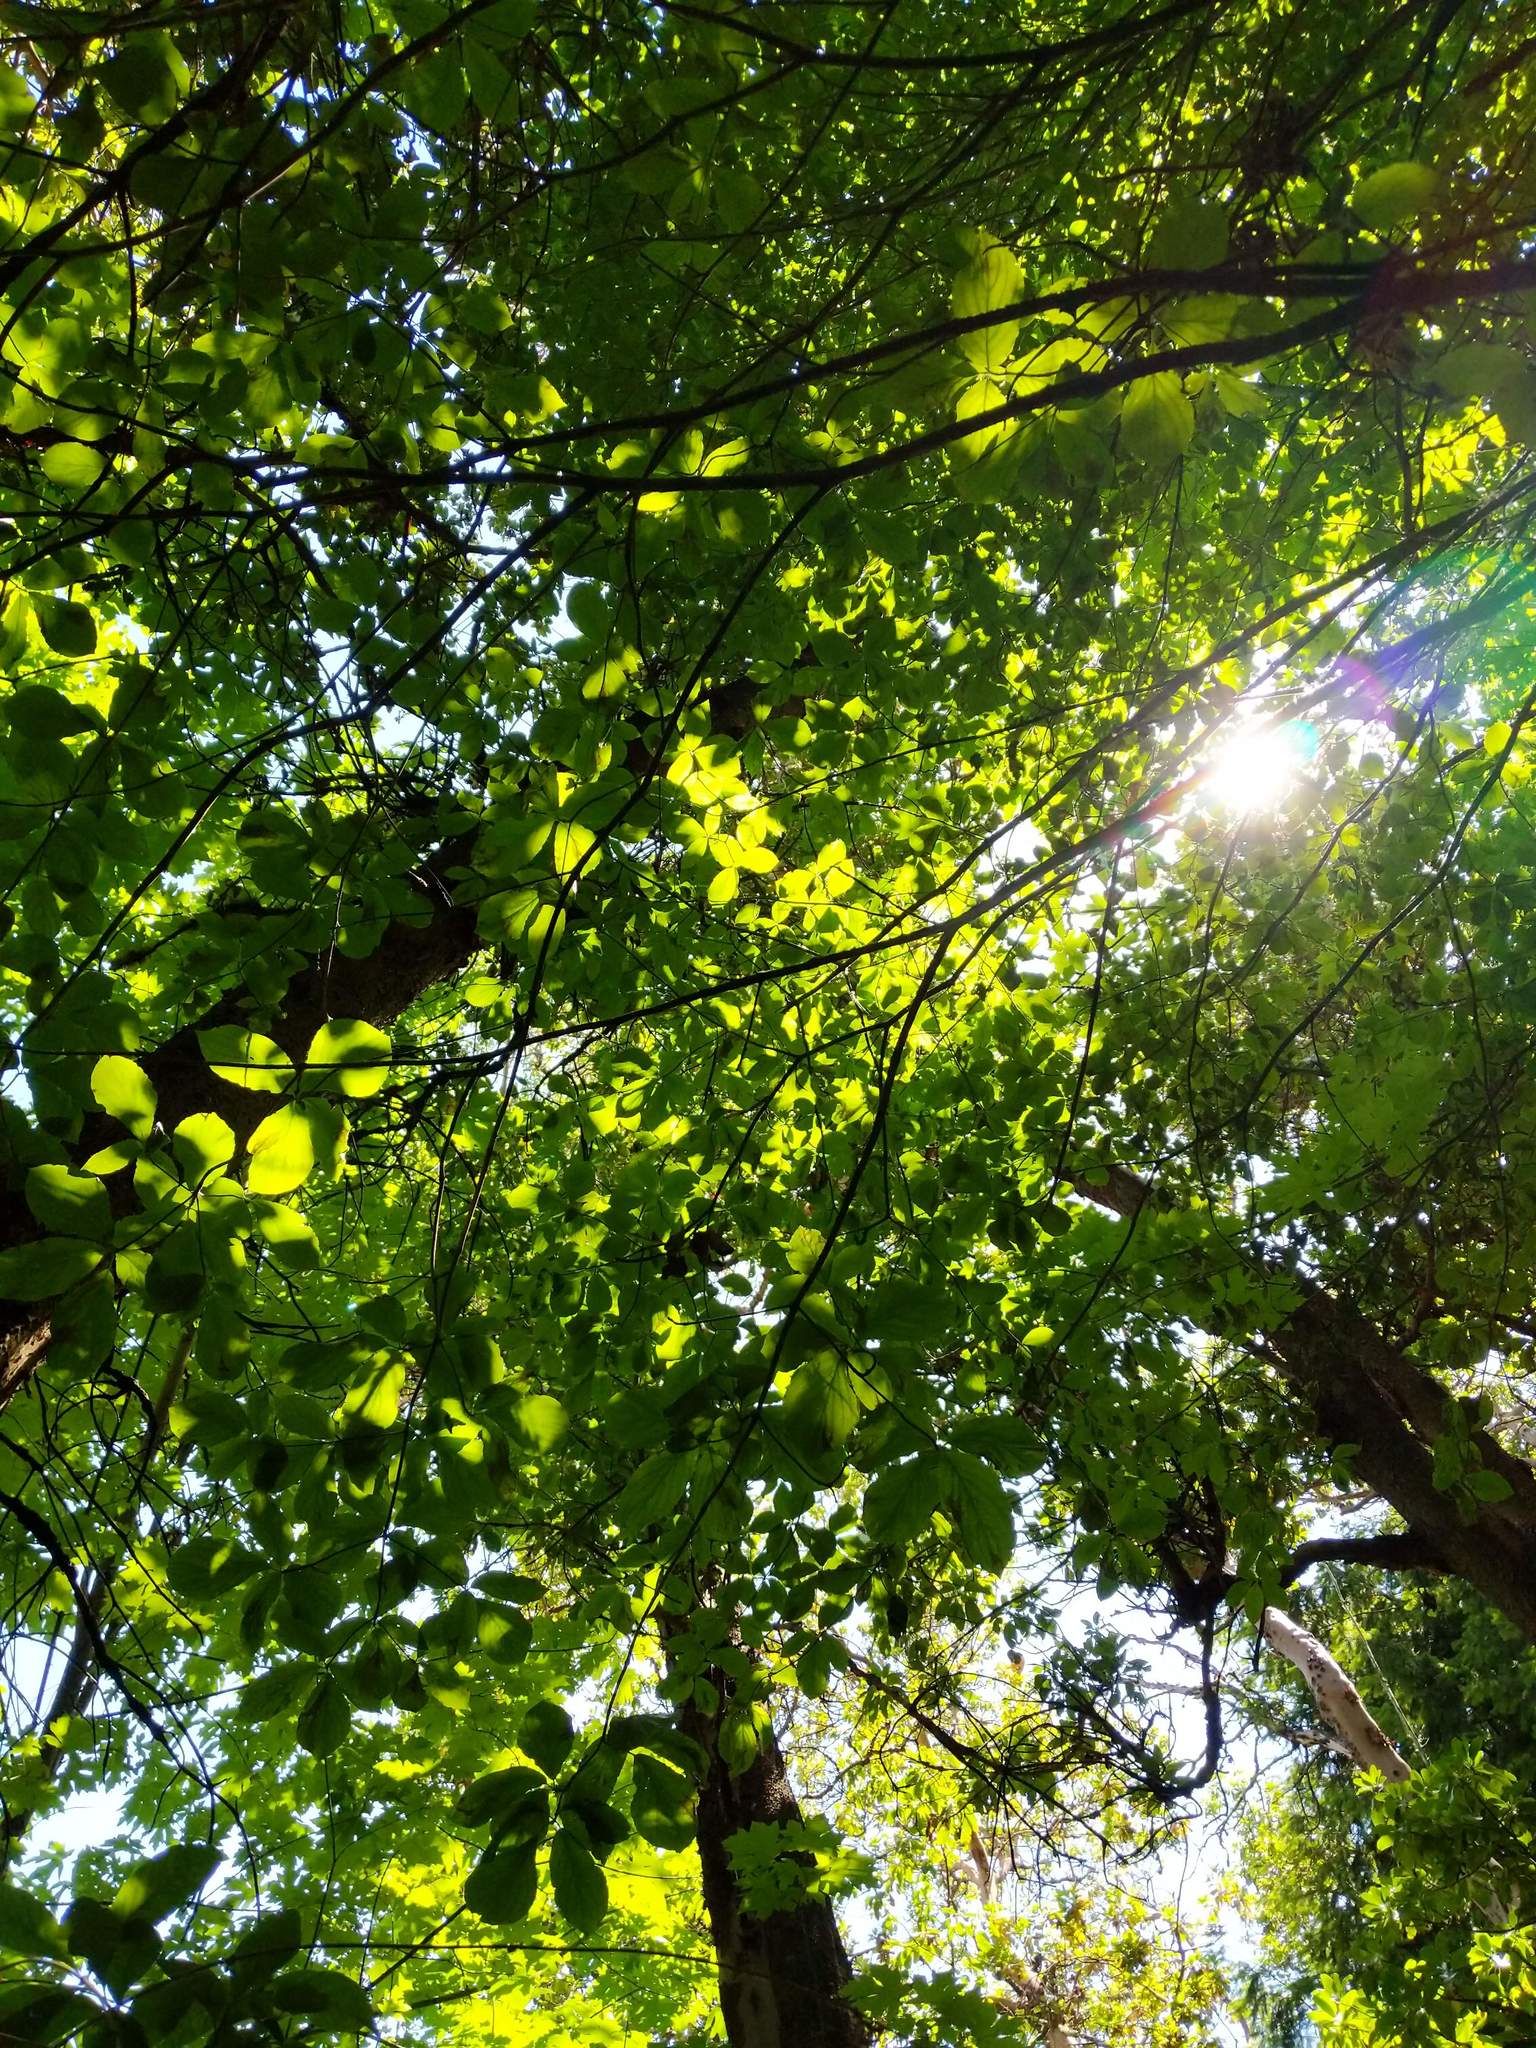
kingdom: Plantae
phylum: Tracheophyta
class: Magnoliopsida
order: Cornales
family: Cornaceae
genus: Cornus
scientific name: Cornus nuttallii
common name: Pacific dogwood
